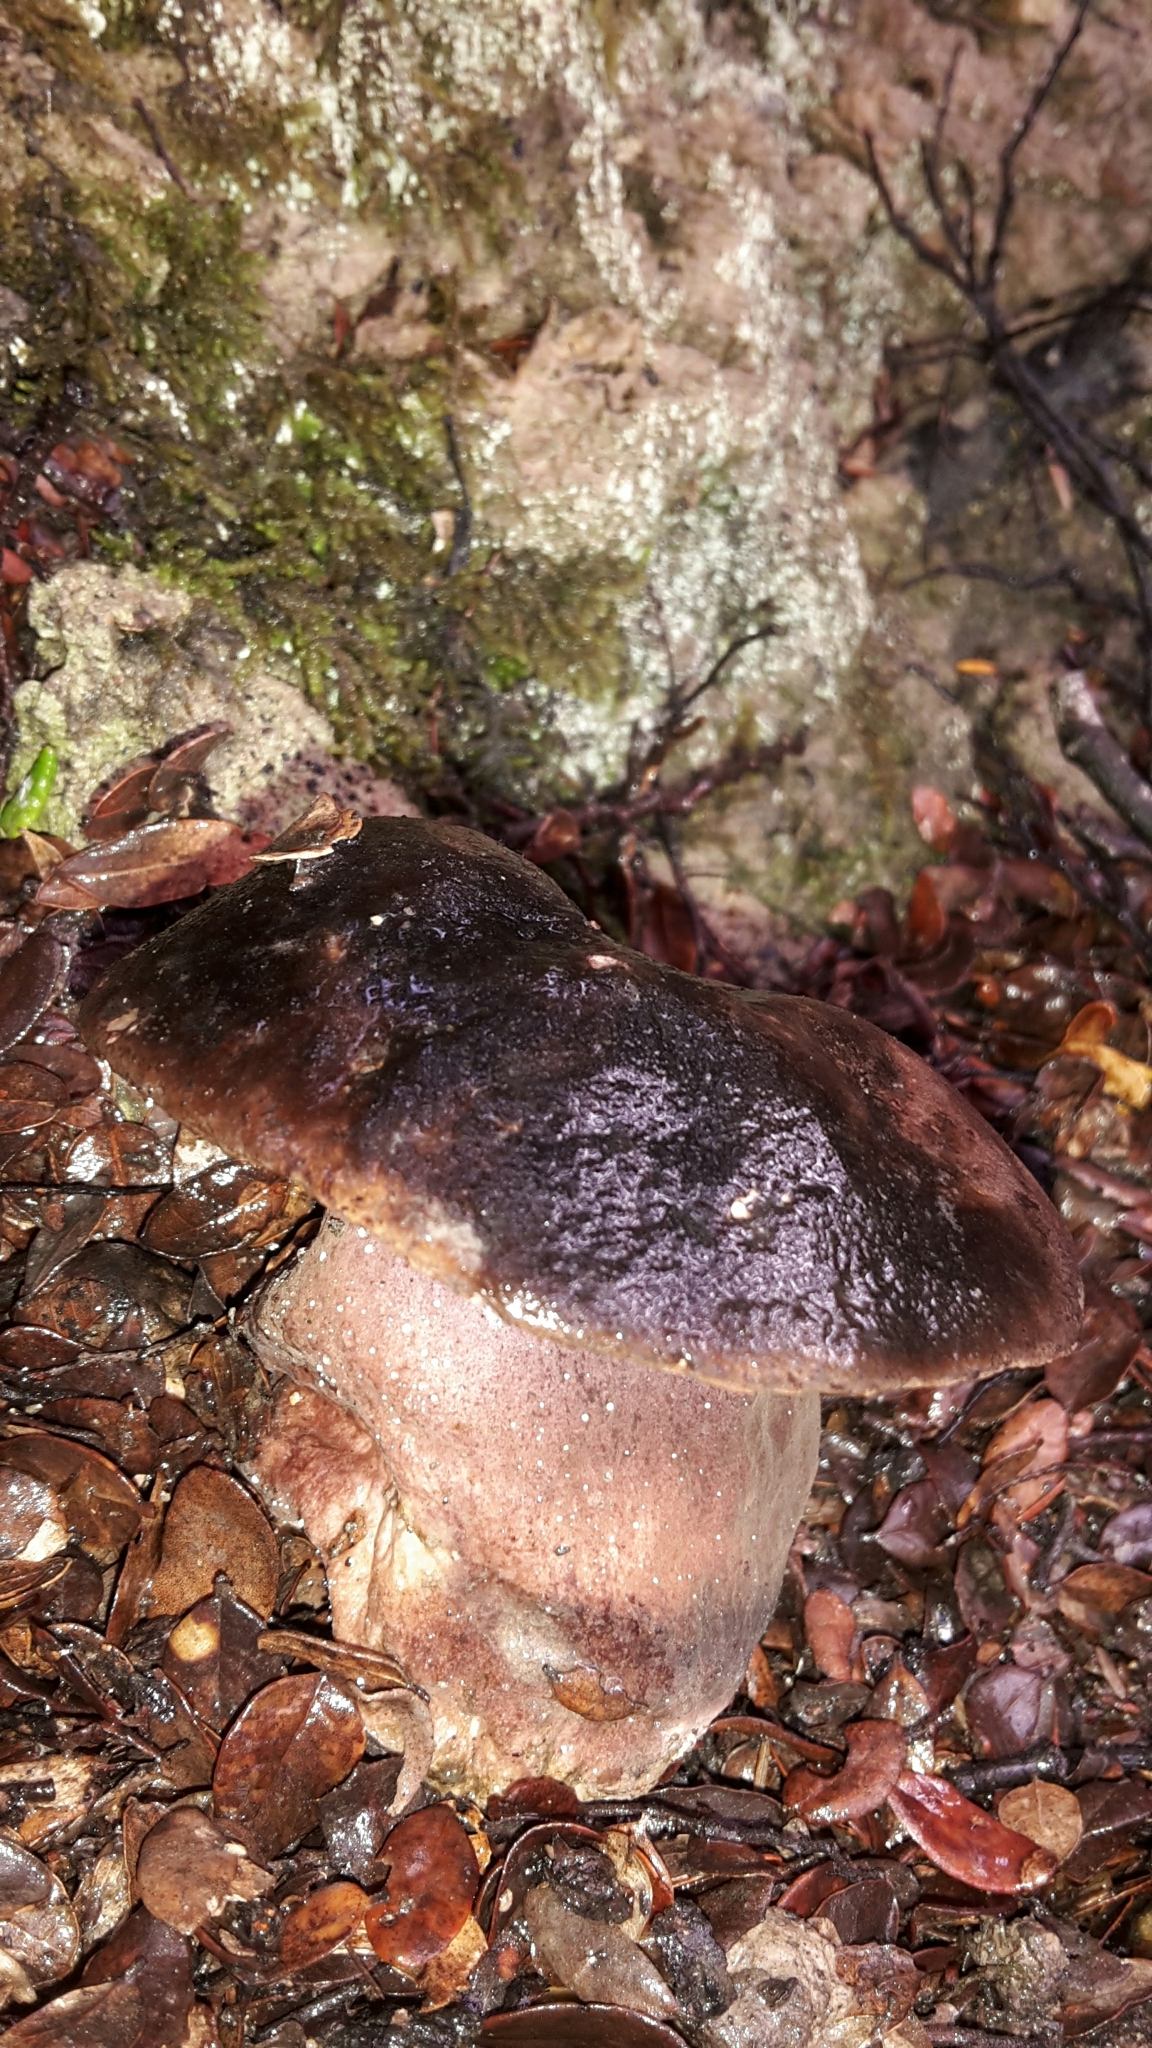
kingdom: Fungi
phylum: Basidiomycota
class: Agaricomycetes
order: Boletales
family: Boletaceae
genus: Porphyrellus
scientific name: Porphyrellus formosus
